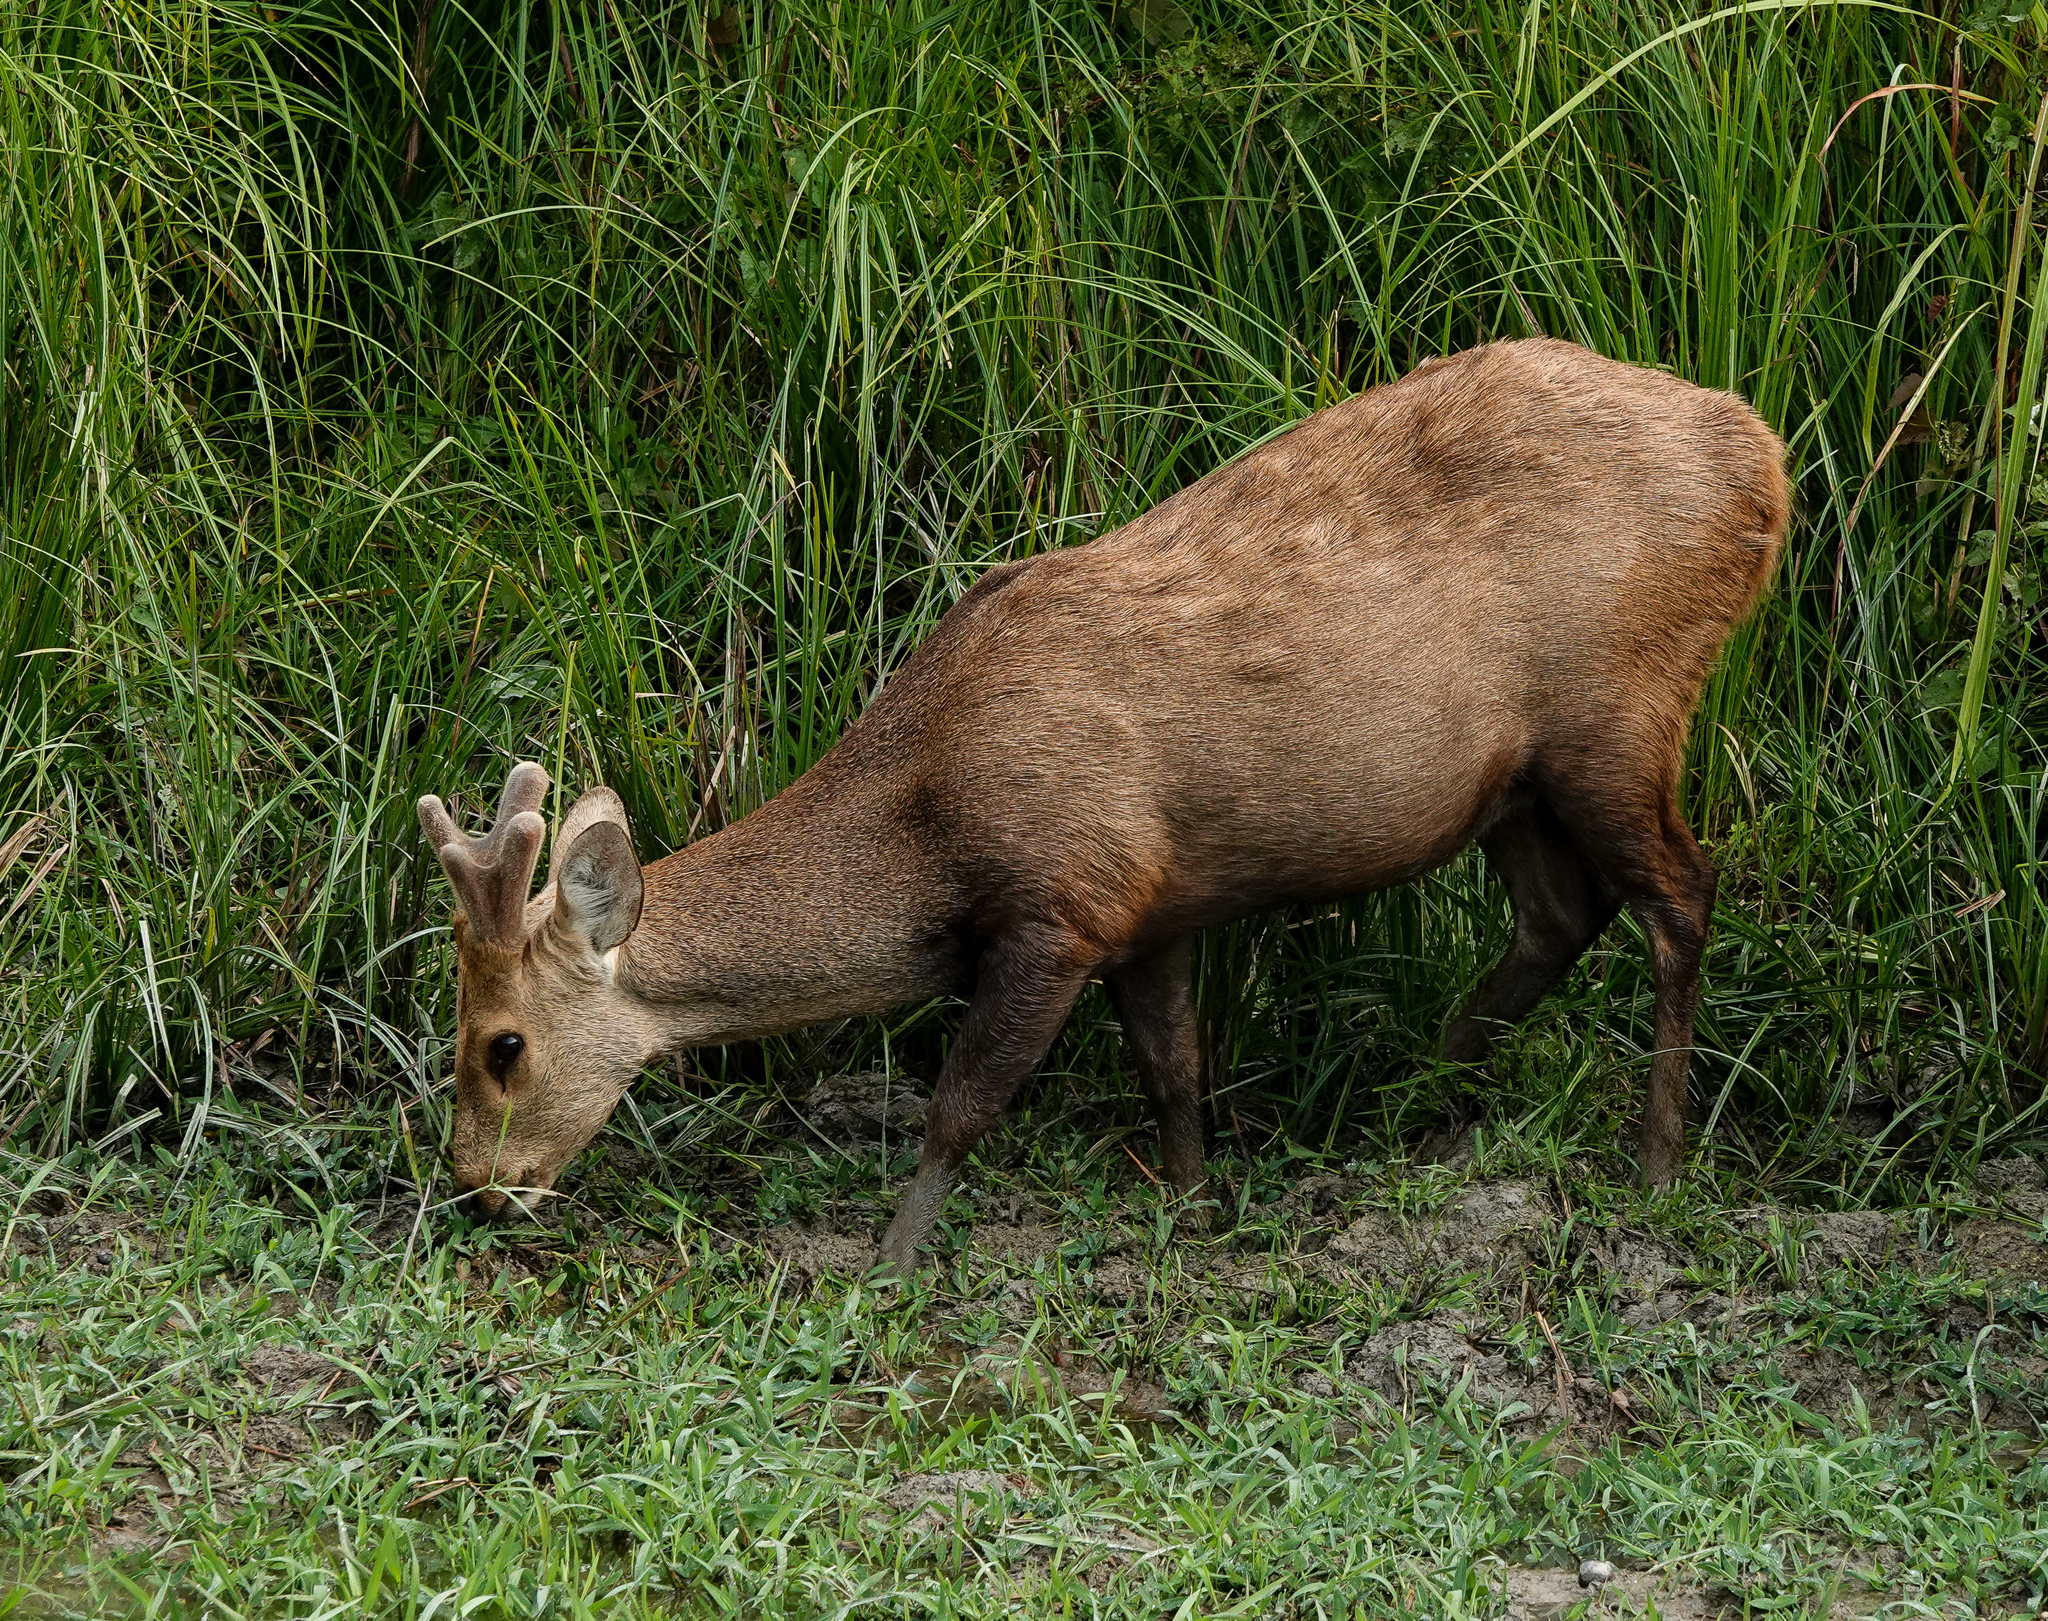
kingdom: Animalia
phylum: Chordata
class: Mammalia
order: Artiodactyla
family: Cervidae
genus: Axis
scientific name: Axis porcinus
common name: Hog deer
